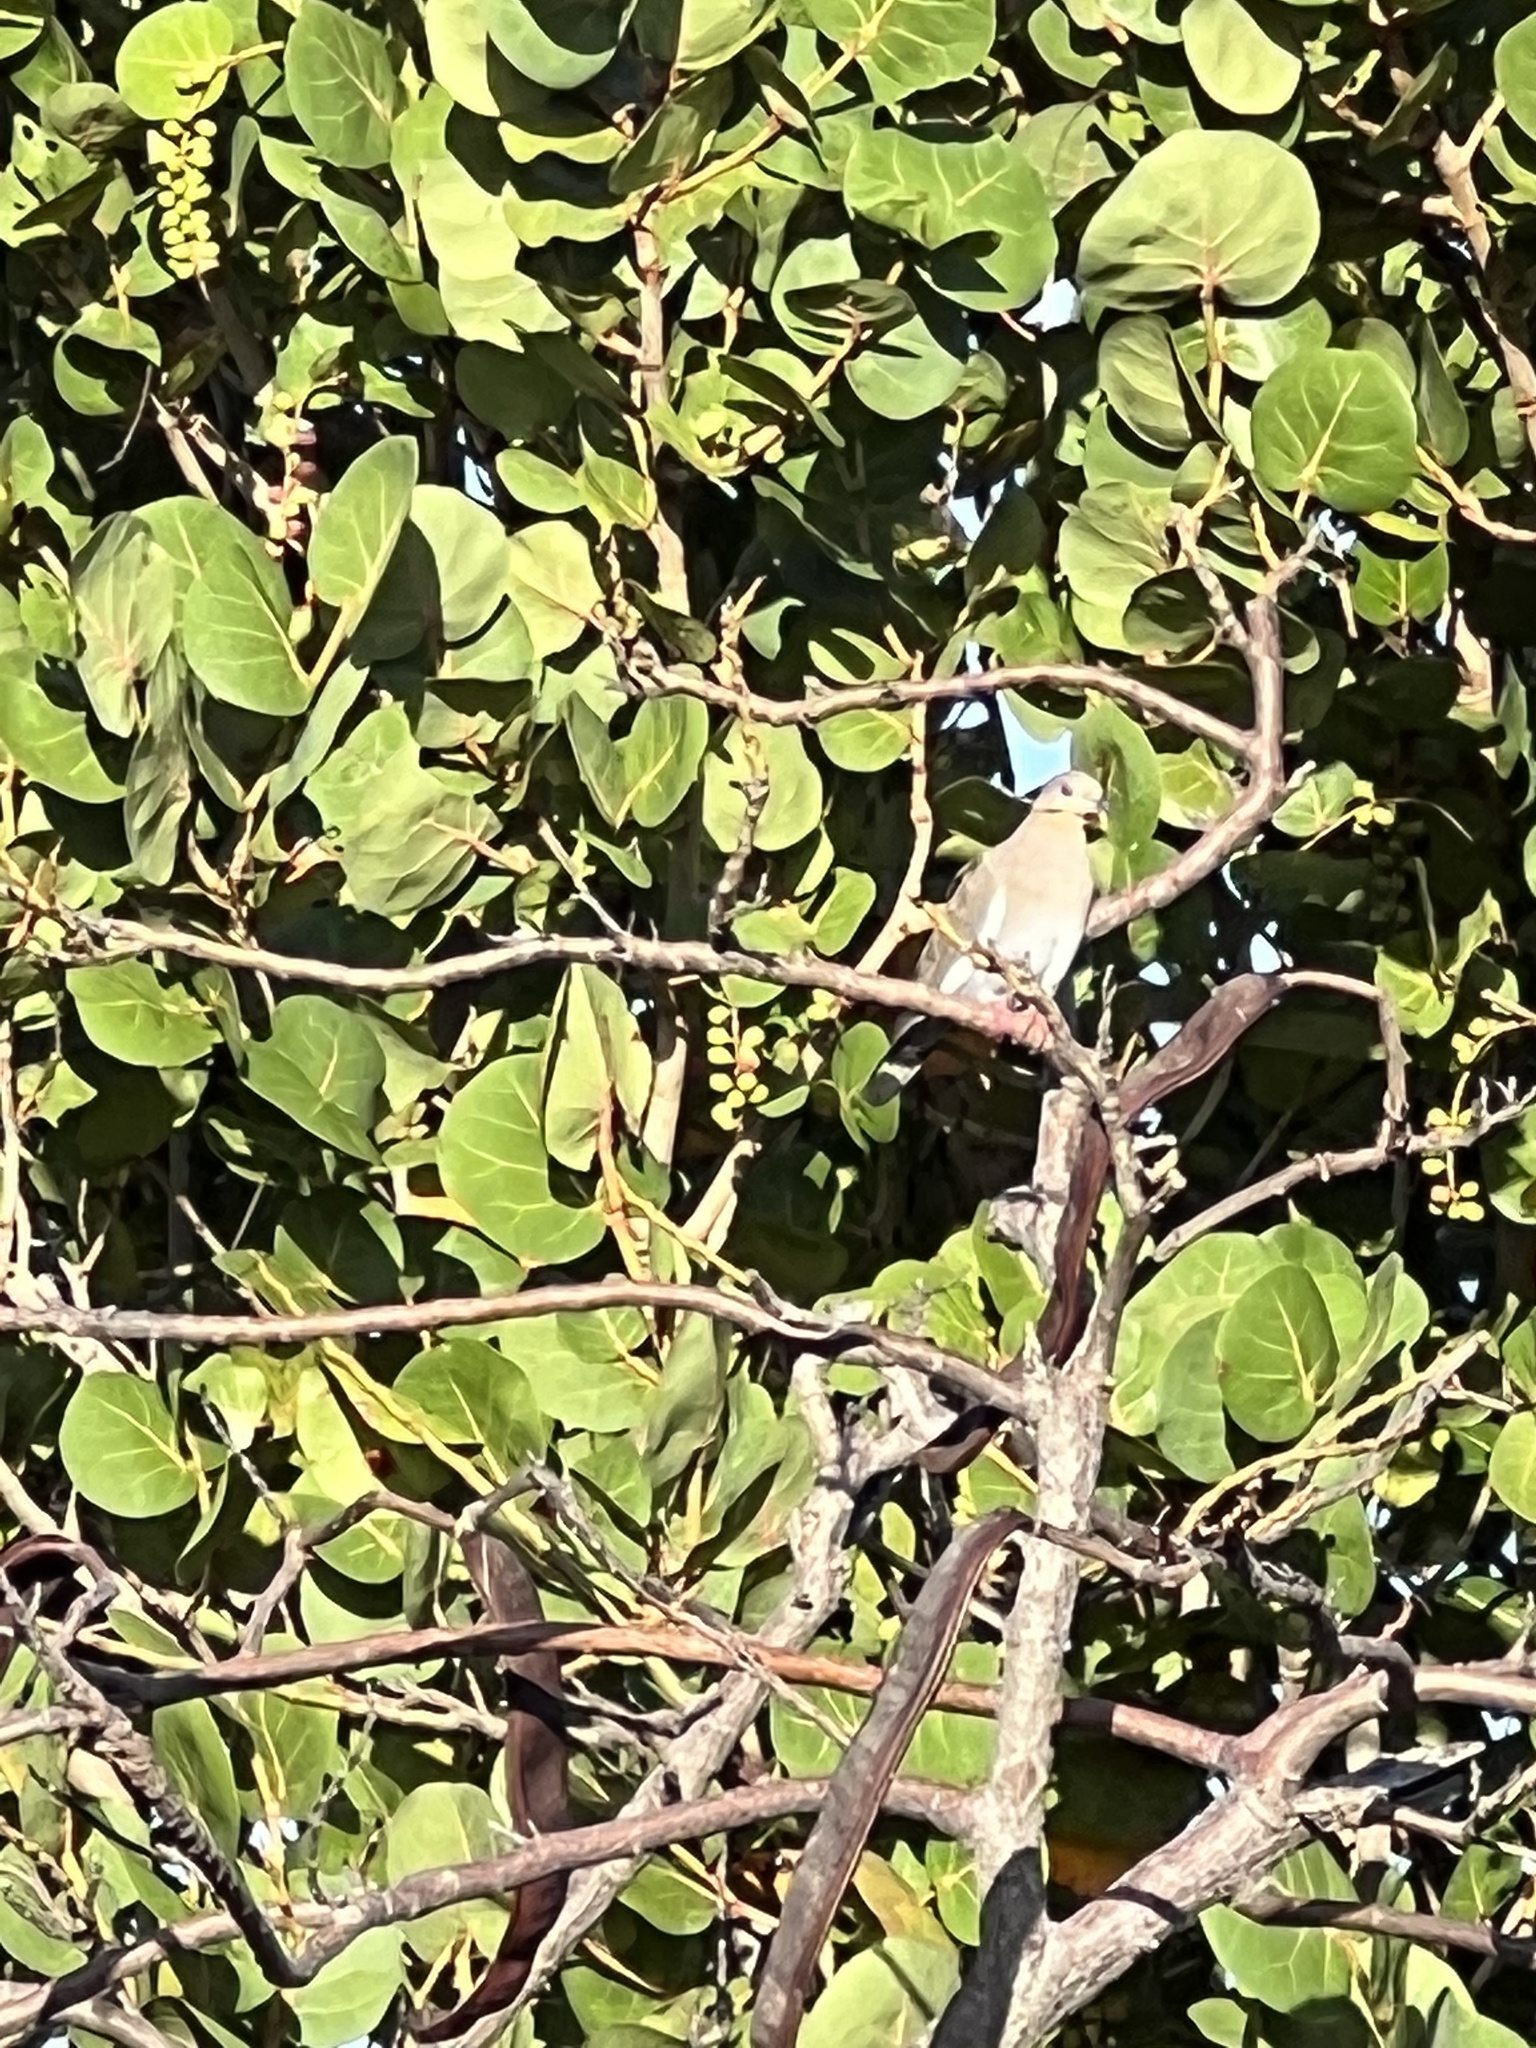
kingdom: Animalia
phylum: Chordata
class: Aves
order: Columbiformes
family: Columbidae
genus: Zenaida
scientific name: Zenaida asiatica
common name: White-winged dove
